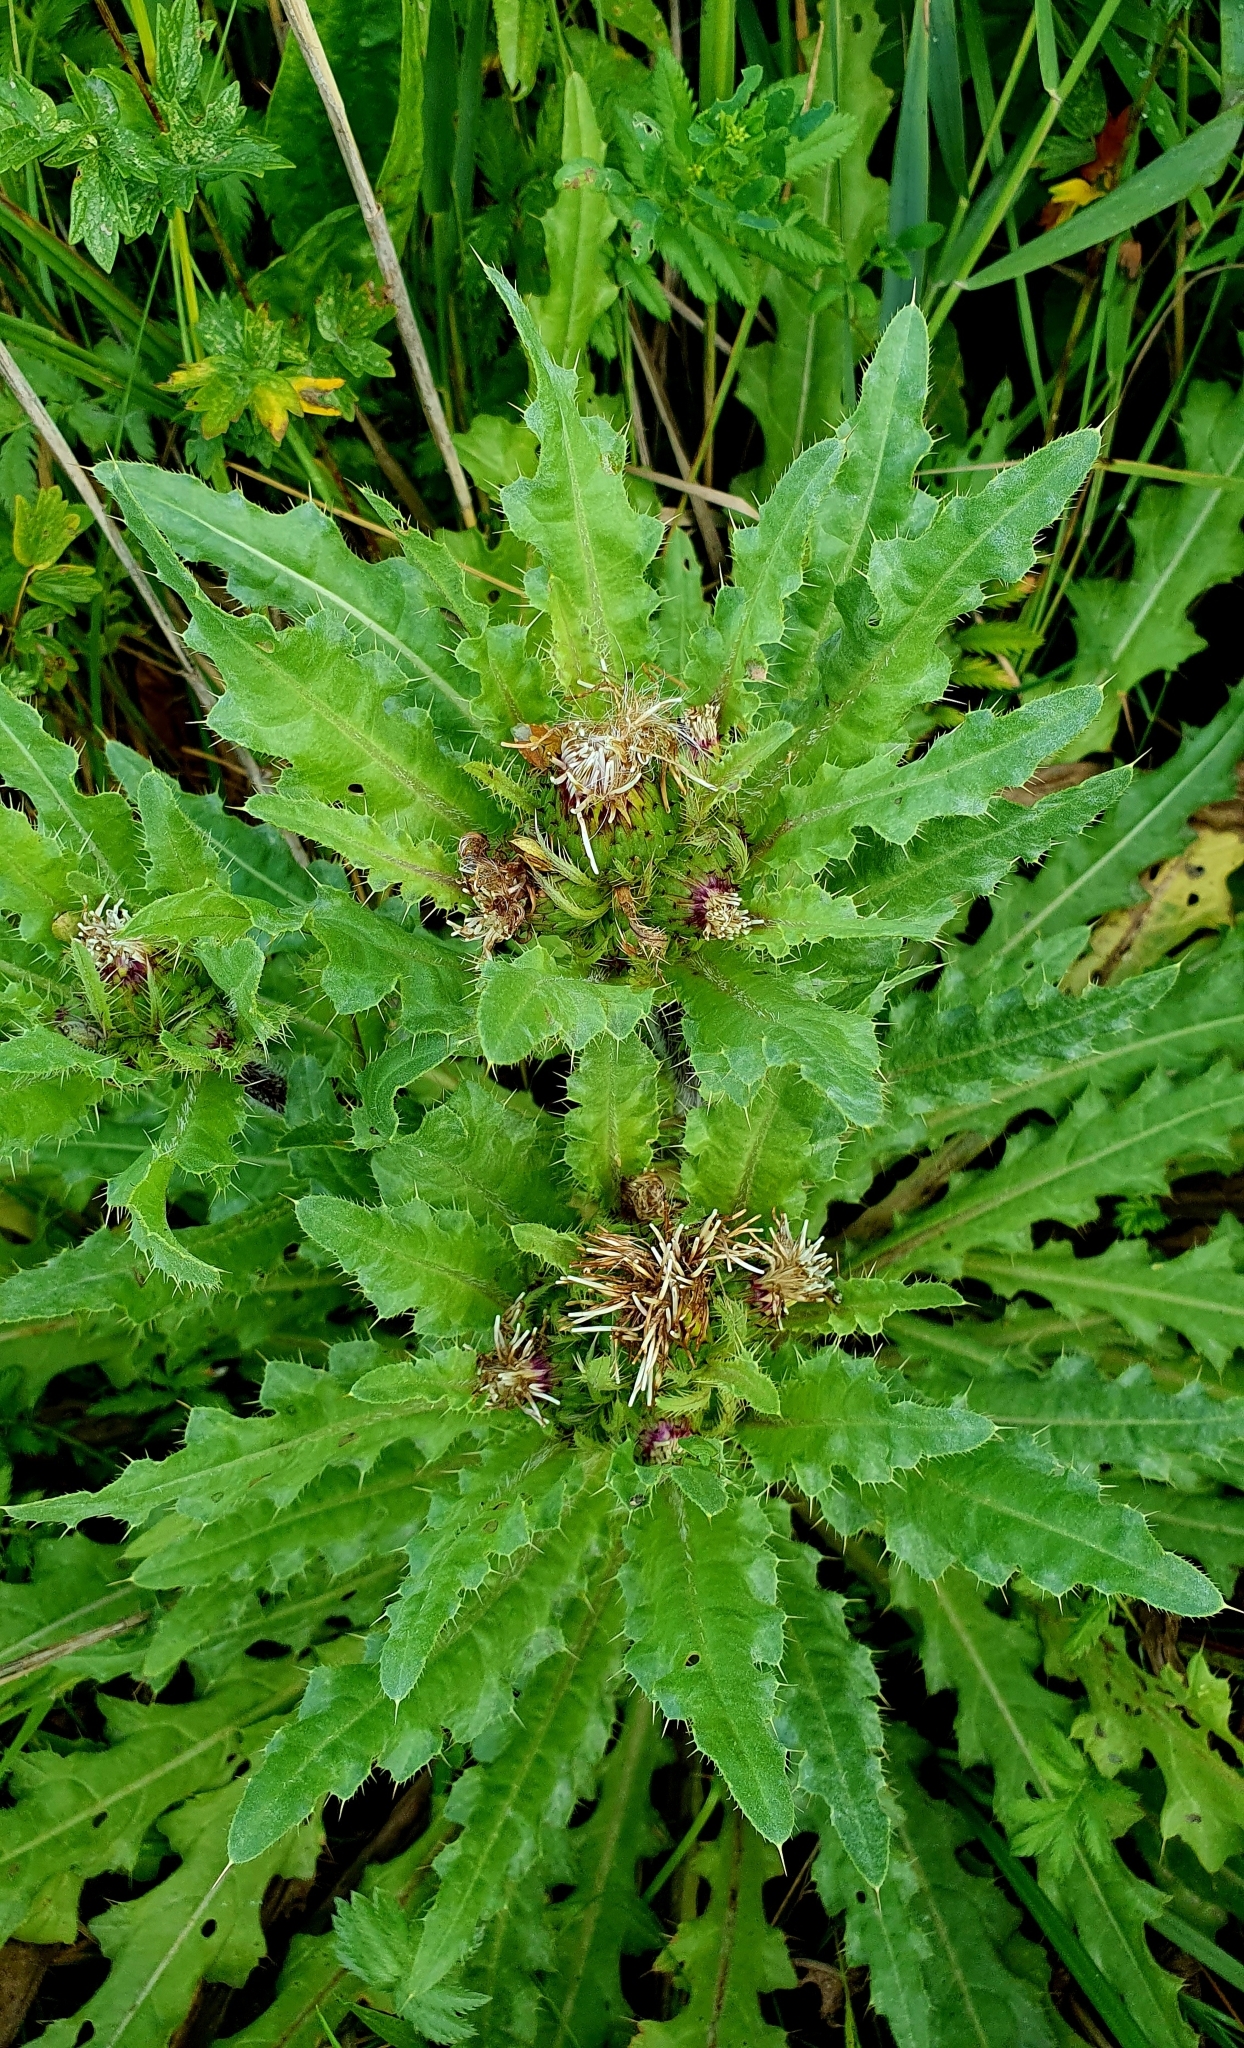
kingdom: Plantae
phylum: Tracheophyta
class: Magnoliopsida
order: Asterales
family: Asteraceae
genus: Cirsium
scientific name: Cirsium esculentum
